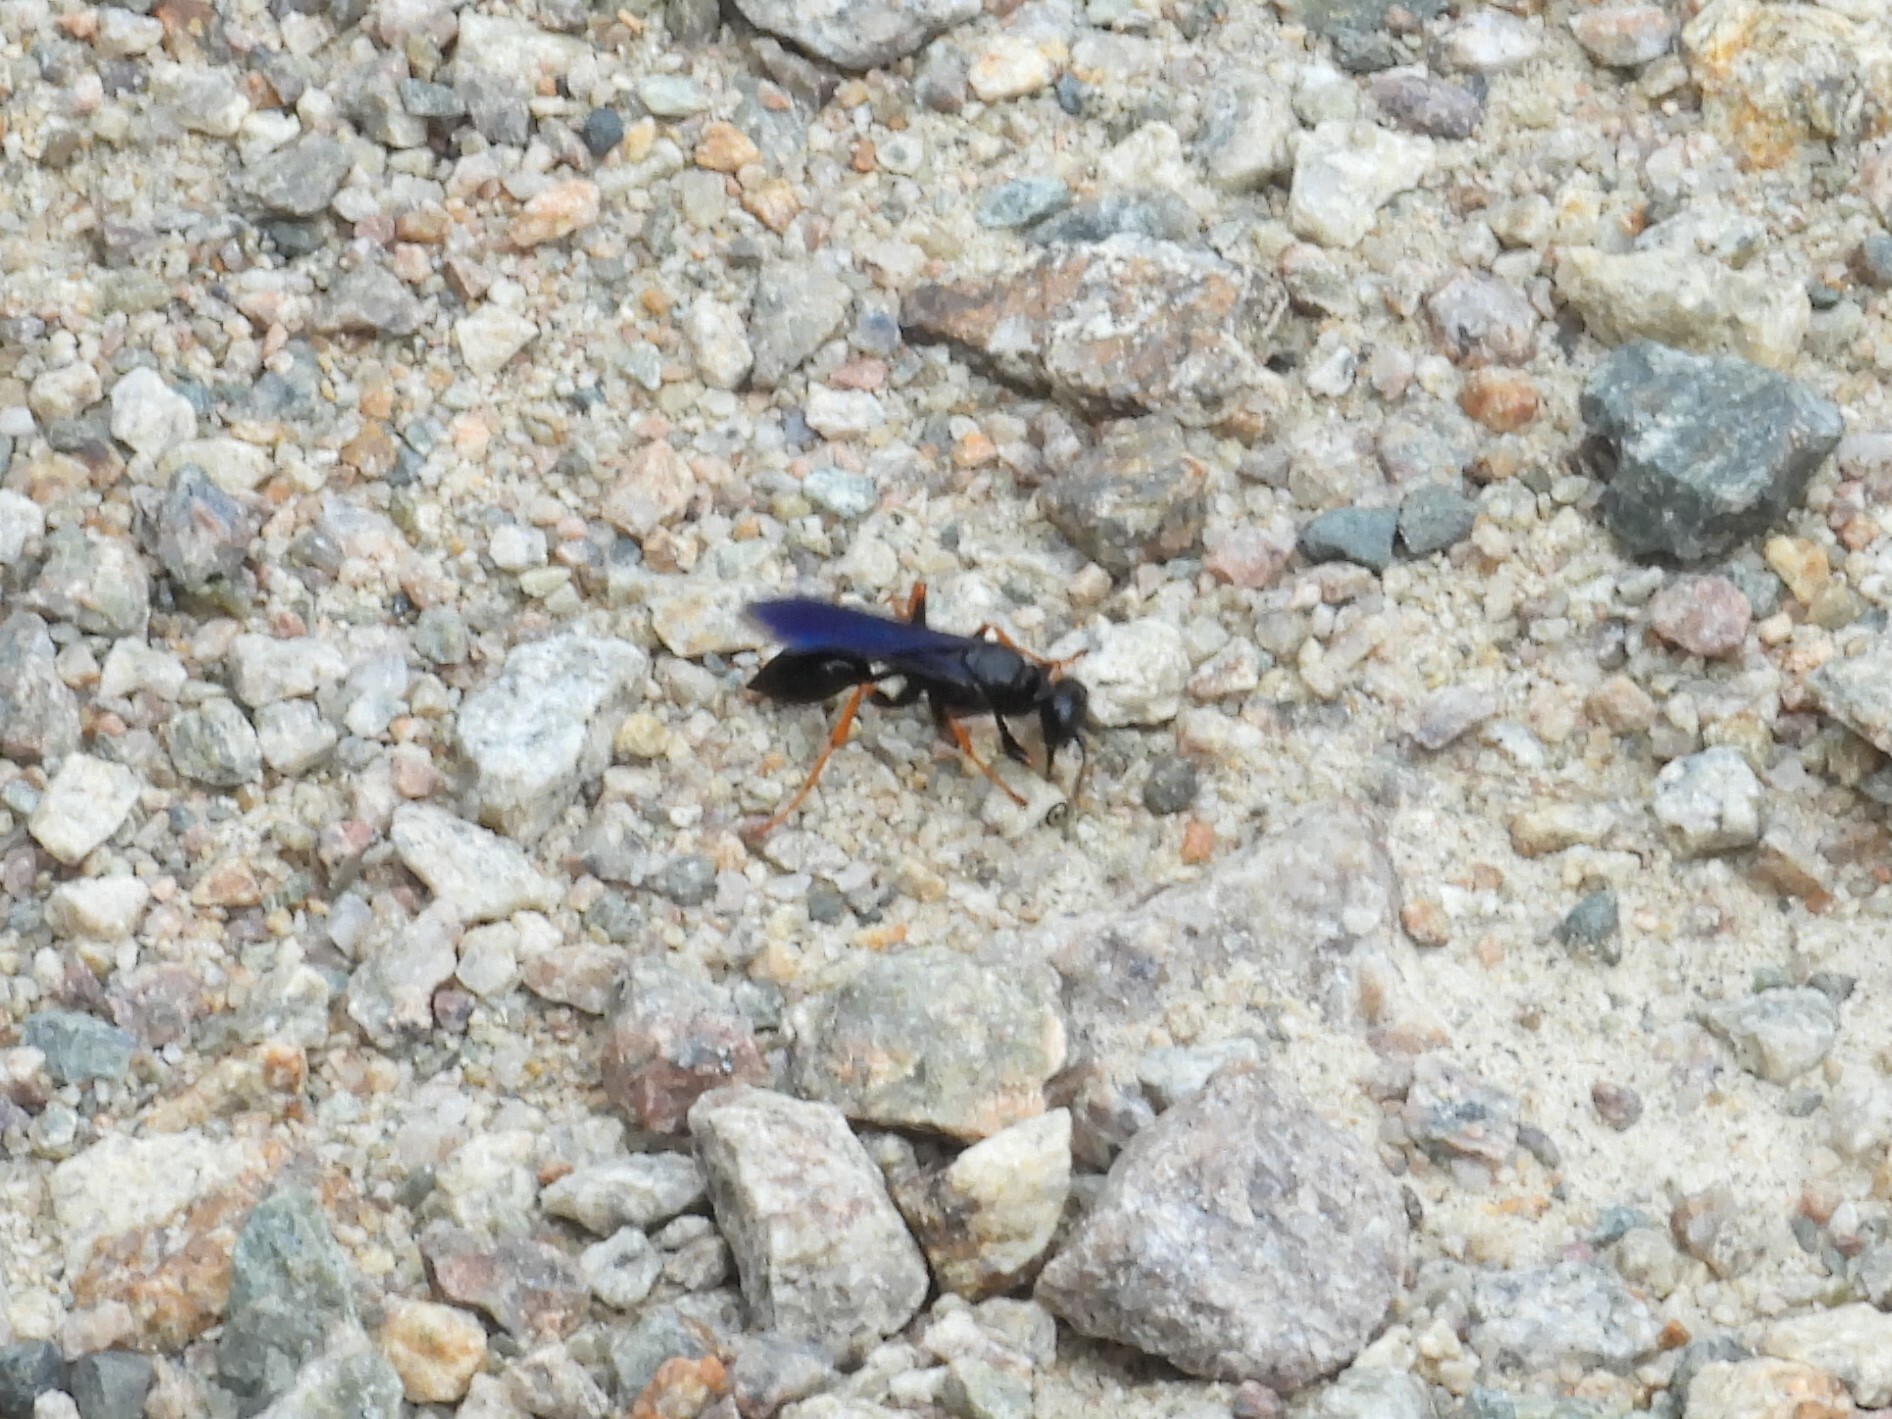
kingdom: Animalia
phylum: Arthropoda
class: Insecta
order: Hymenoptera
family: Sphecidae
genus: Podium
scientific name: Podium luctuosum
